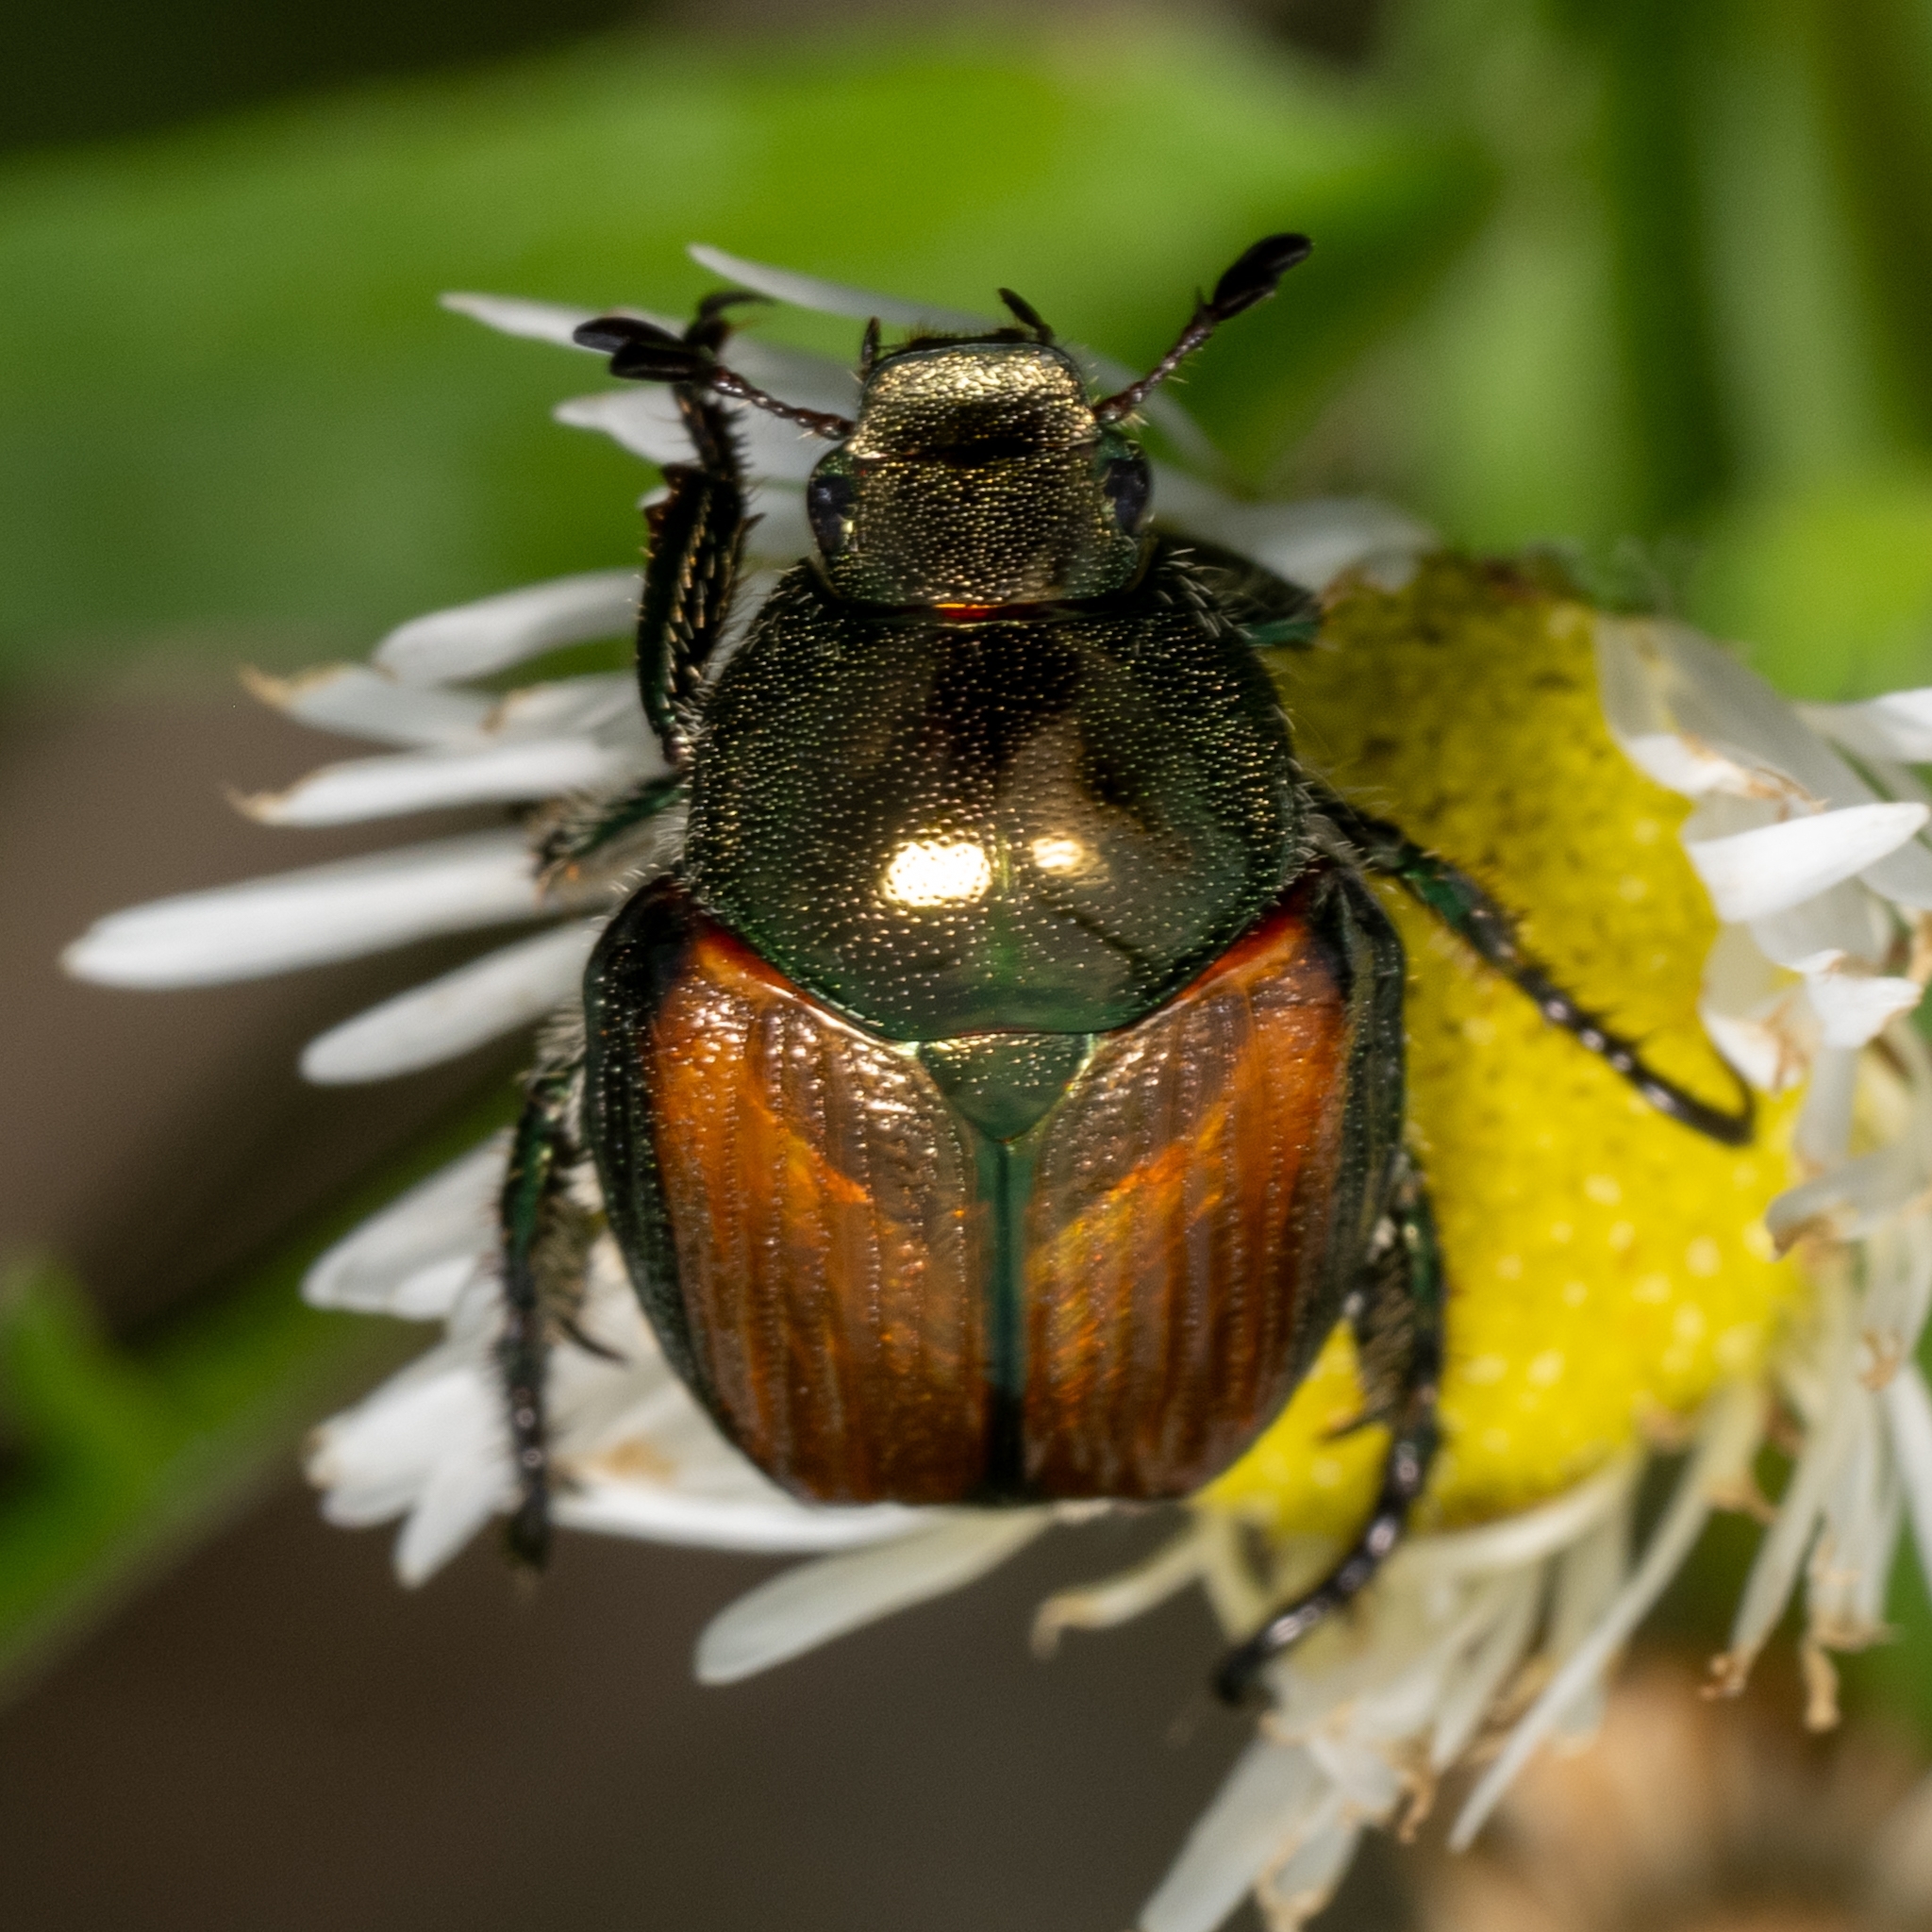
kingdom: Animalia
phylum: Arthropoda
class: Insecta
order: Coleoptera
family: Scarabaeidae
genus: Popillia
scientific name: Popillia japonica
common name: Japanese beetle
